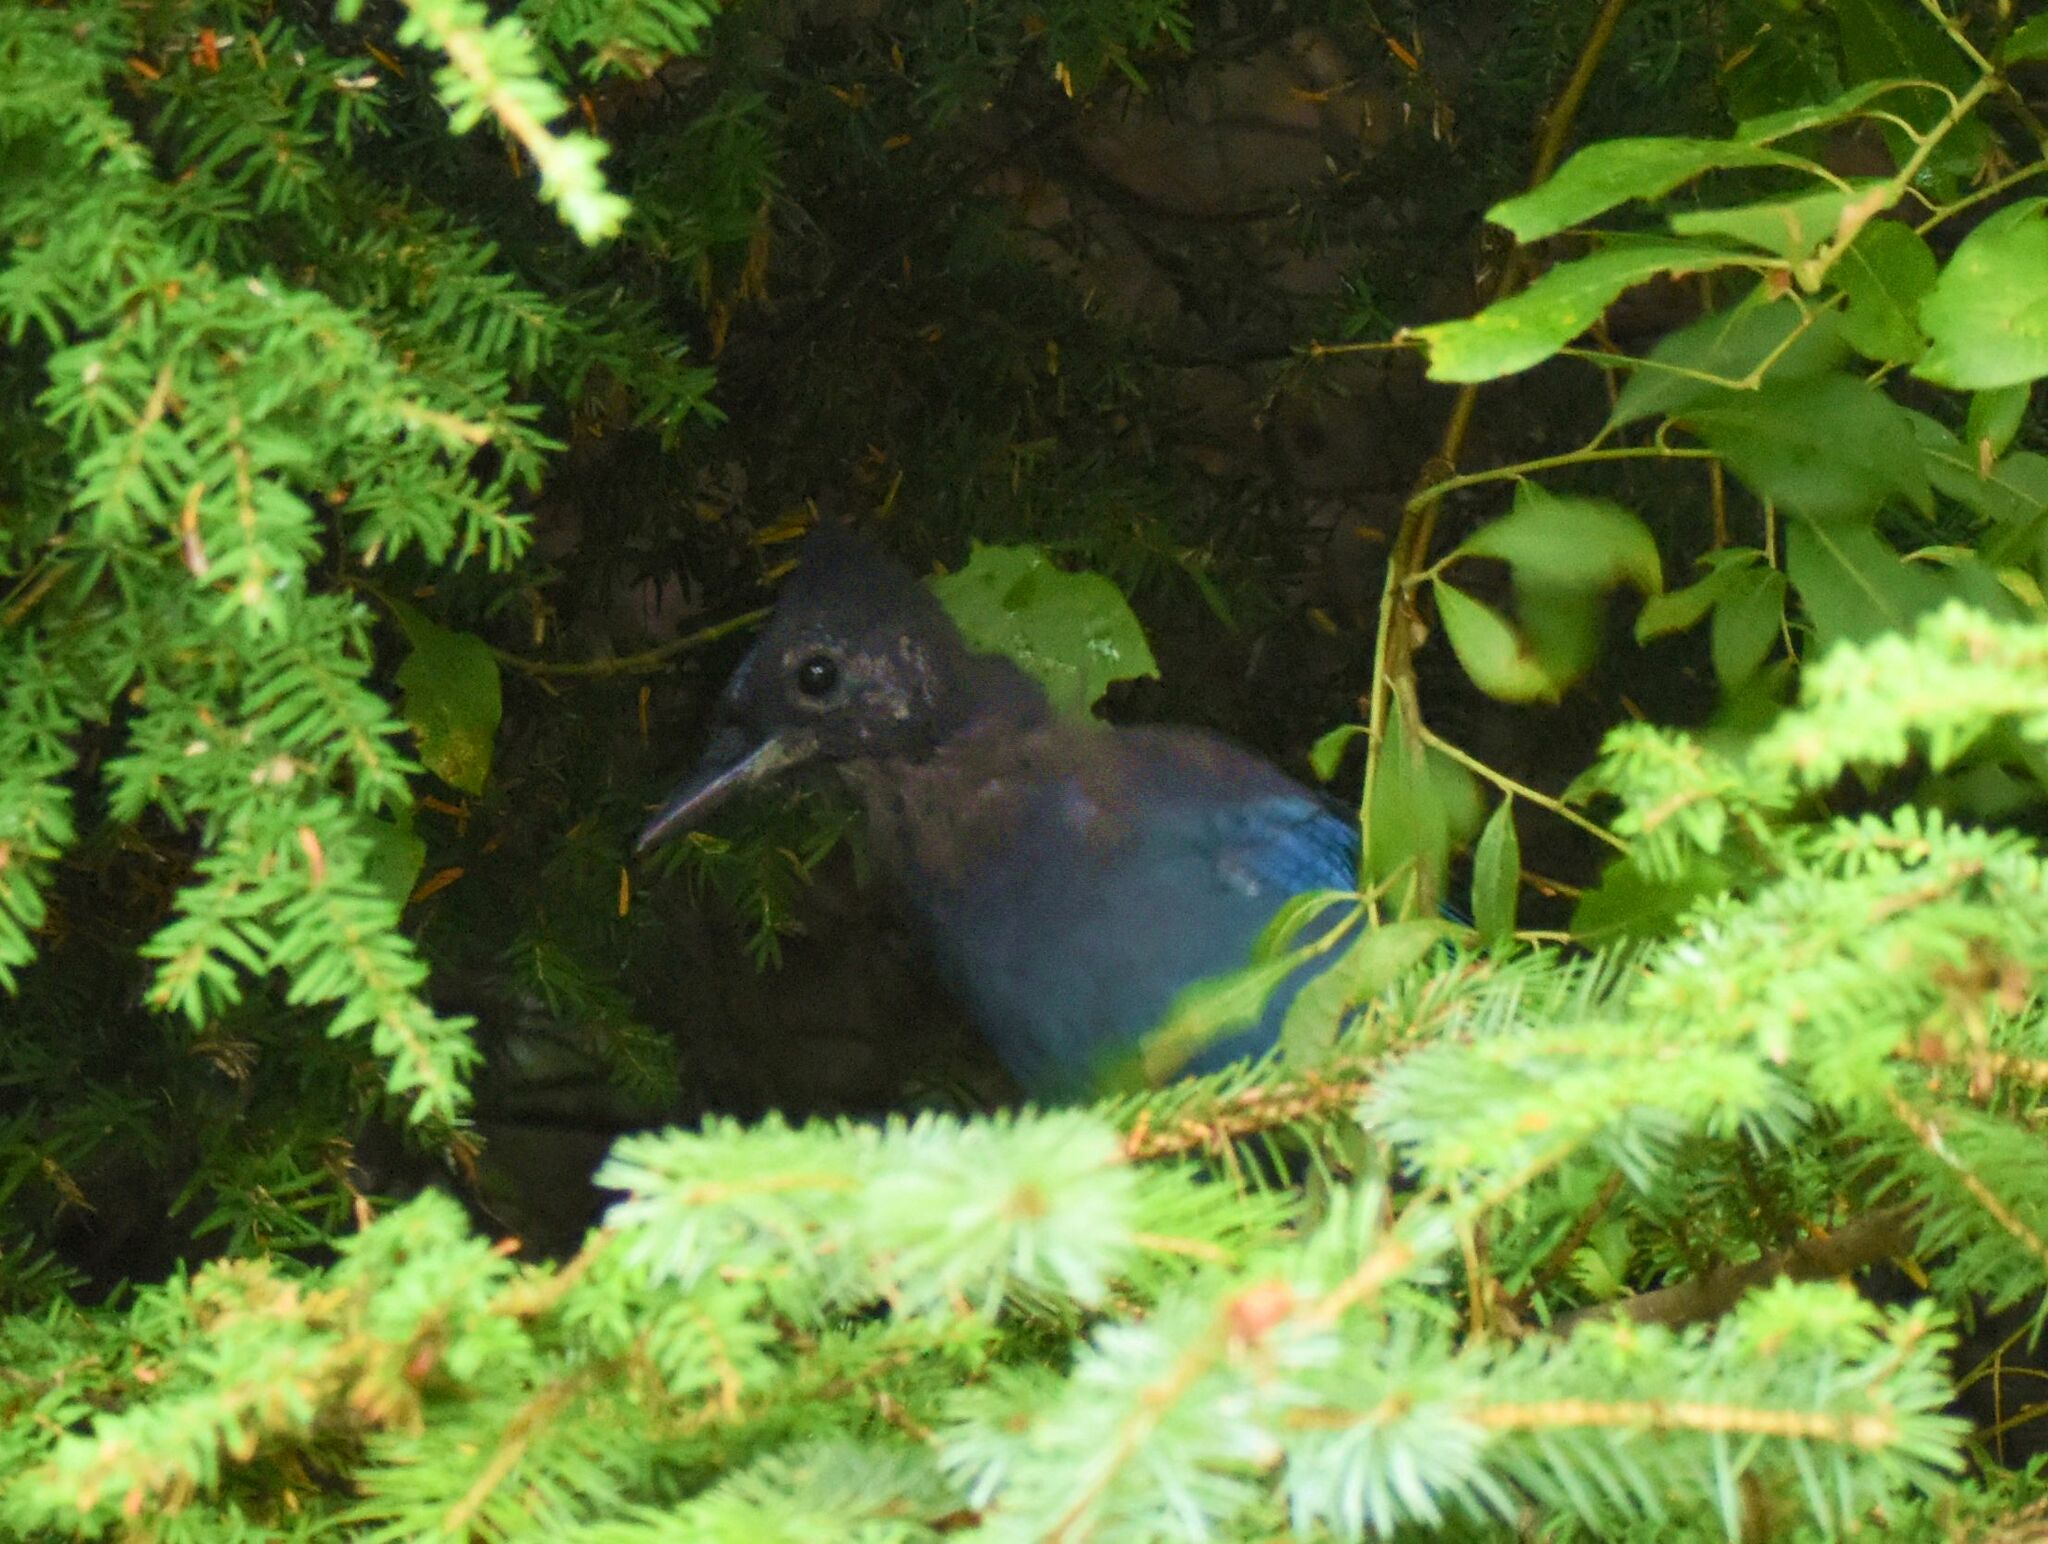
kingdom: Animalia
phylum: Chordata
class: Aves
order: Passeriformes
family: Corvidae
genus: Cyanocitta
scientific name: Cyanocitta stelleri
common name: Steller's jay
